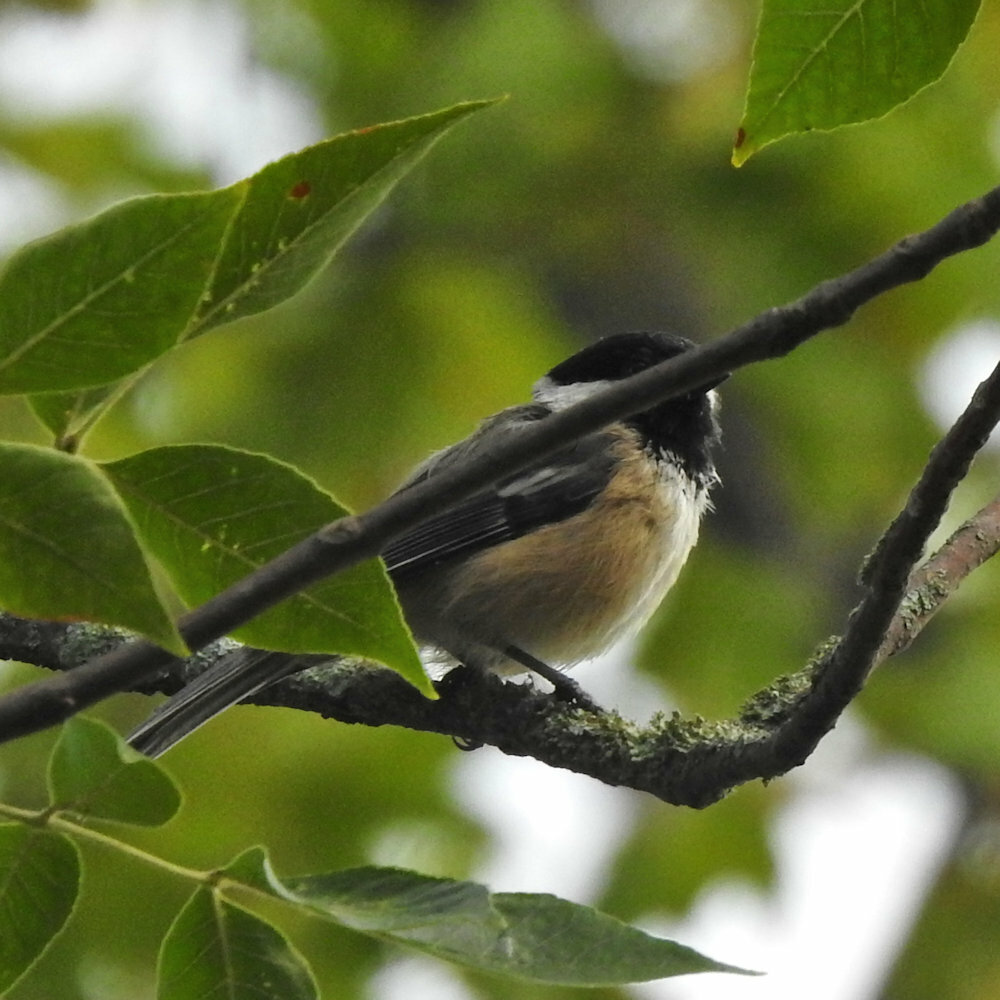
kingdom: Animalia
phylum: Chordata
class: Aves
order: Passeriformes
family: Paridae
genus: Poecile
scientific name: Poecile atricapillus
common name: Black-capped chickadee
